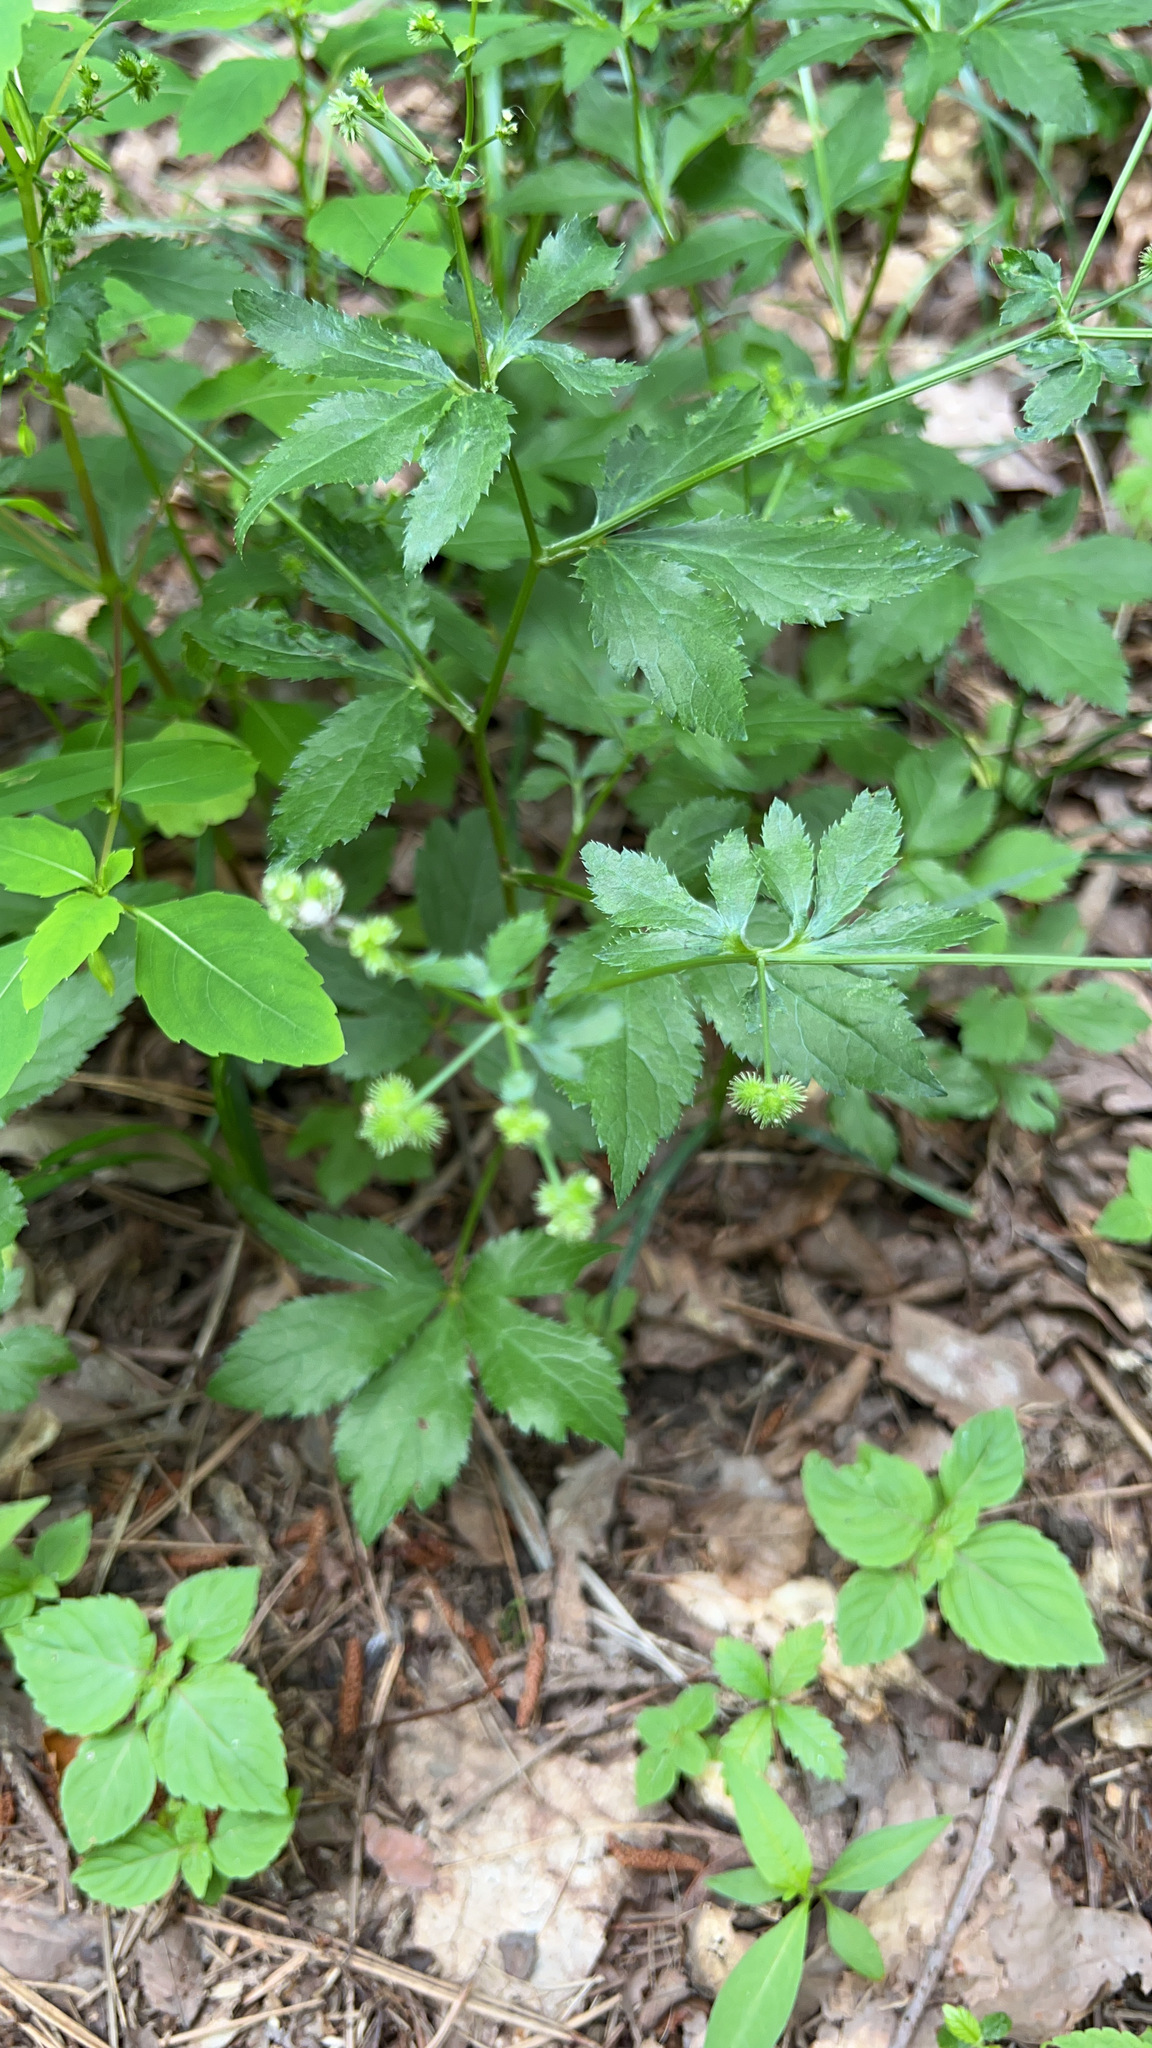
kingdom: Plantae
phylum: Tracheophyta
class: Magnoliopsida
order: Apiales
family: Apiaceae
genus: Sanicula
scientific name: Sanicula canadensis
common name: Canada sanicle
